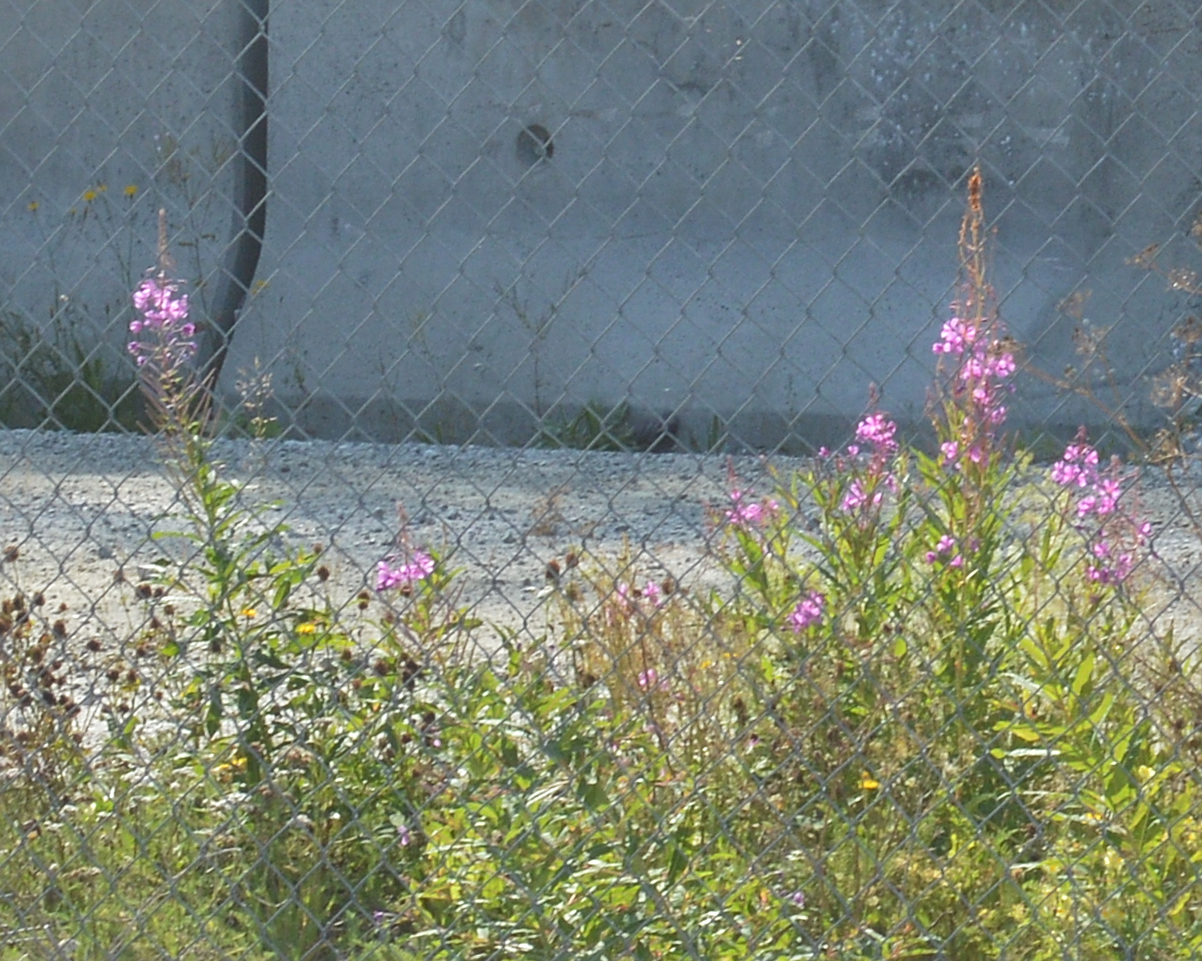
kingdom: Plantae
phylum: Tracheophyta
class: Magnoliopsida
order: Myrtales
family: Onagraceae
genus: Chamaenerion
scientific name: Chamaenerion angustifolium
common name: Fireweed
